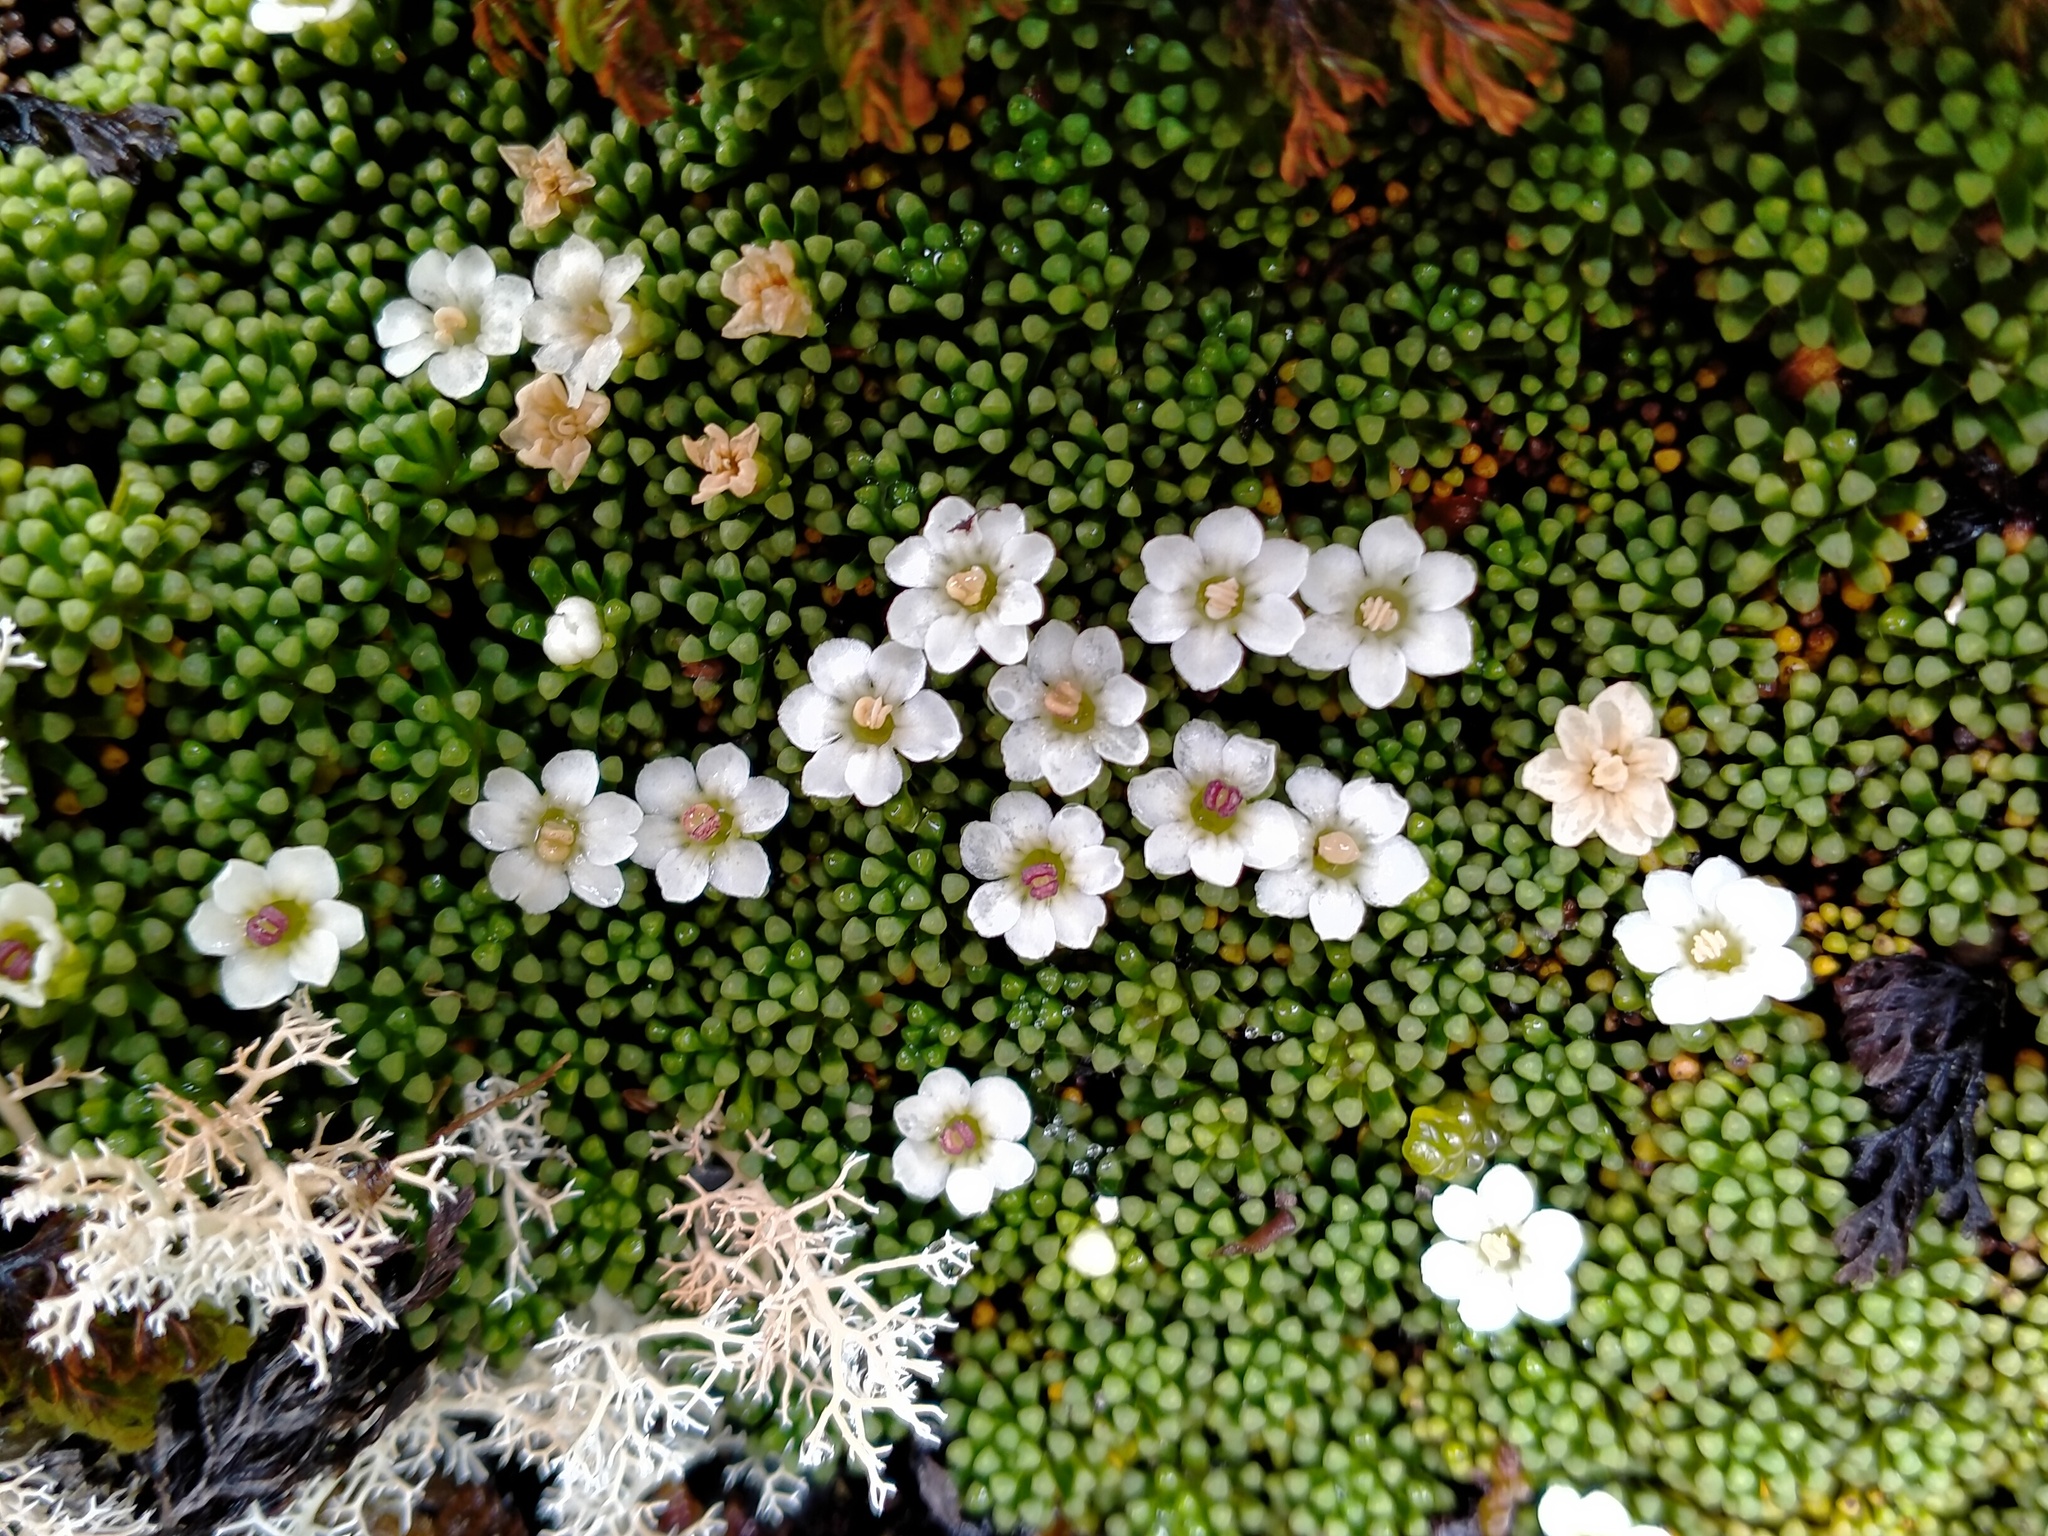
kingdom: Plantae
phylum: Tracheophyta
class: Magnoliopsida
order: Asterales
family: Stylidiaceae
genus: Phyllachne
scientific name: Phyllachne colensoi
